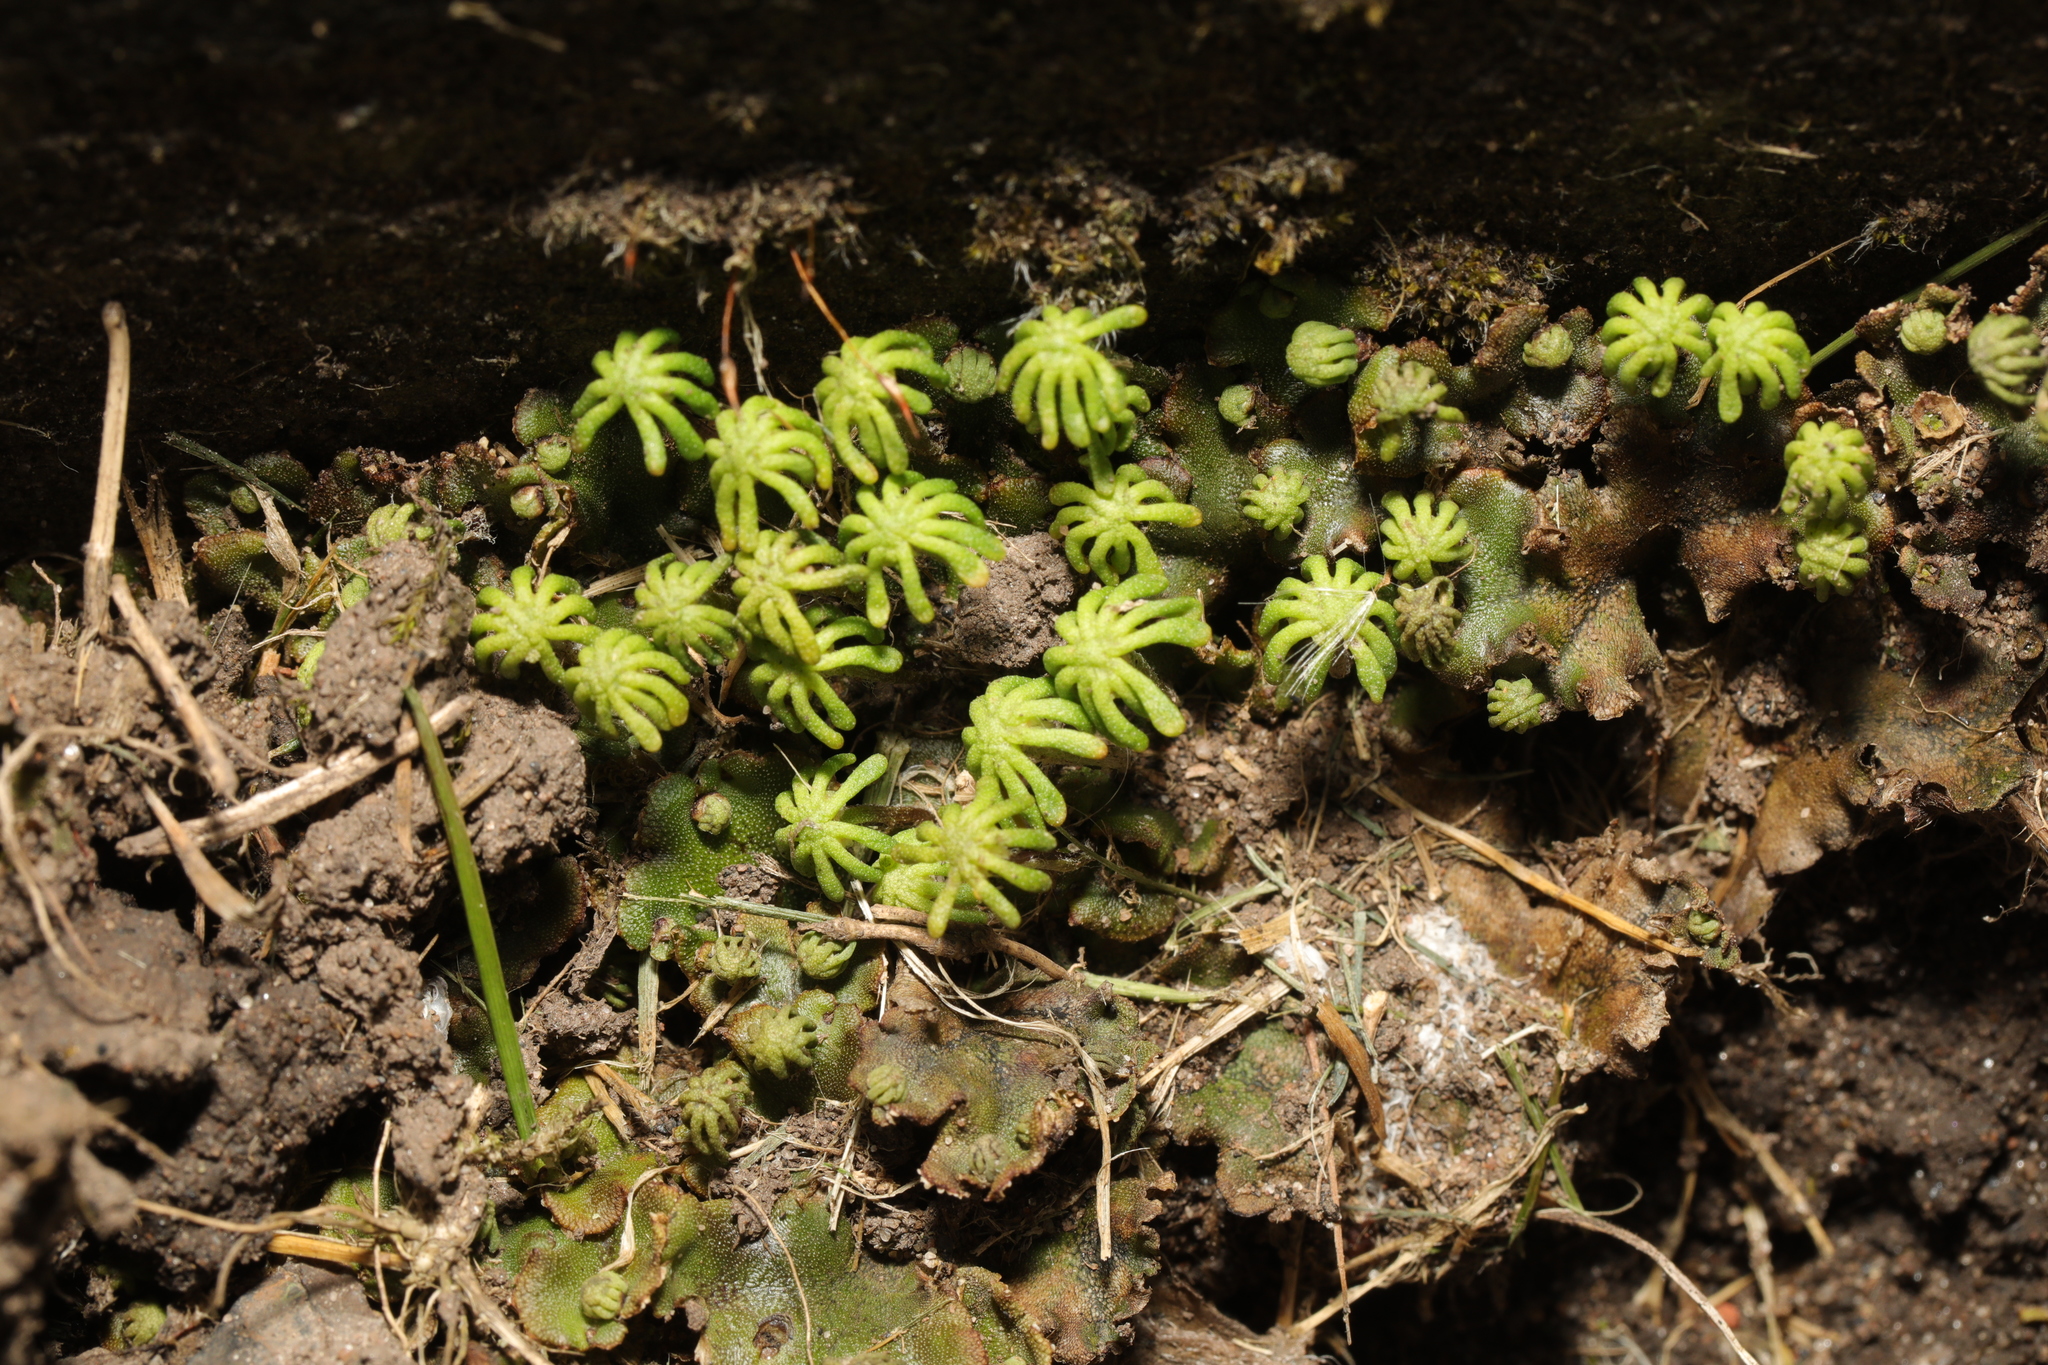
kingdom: Plantae
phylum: Marchantiophyta
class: Marchantiopsida
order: Marchantiales
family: Marchantiaceae
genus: Marchantia
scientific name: Marchantia polymorpha
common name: Common liverwort
